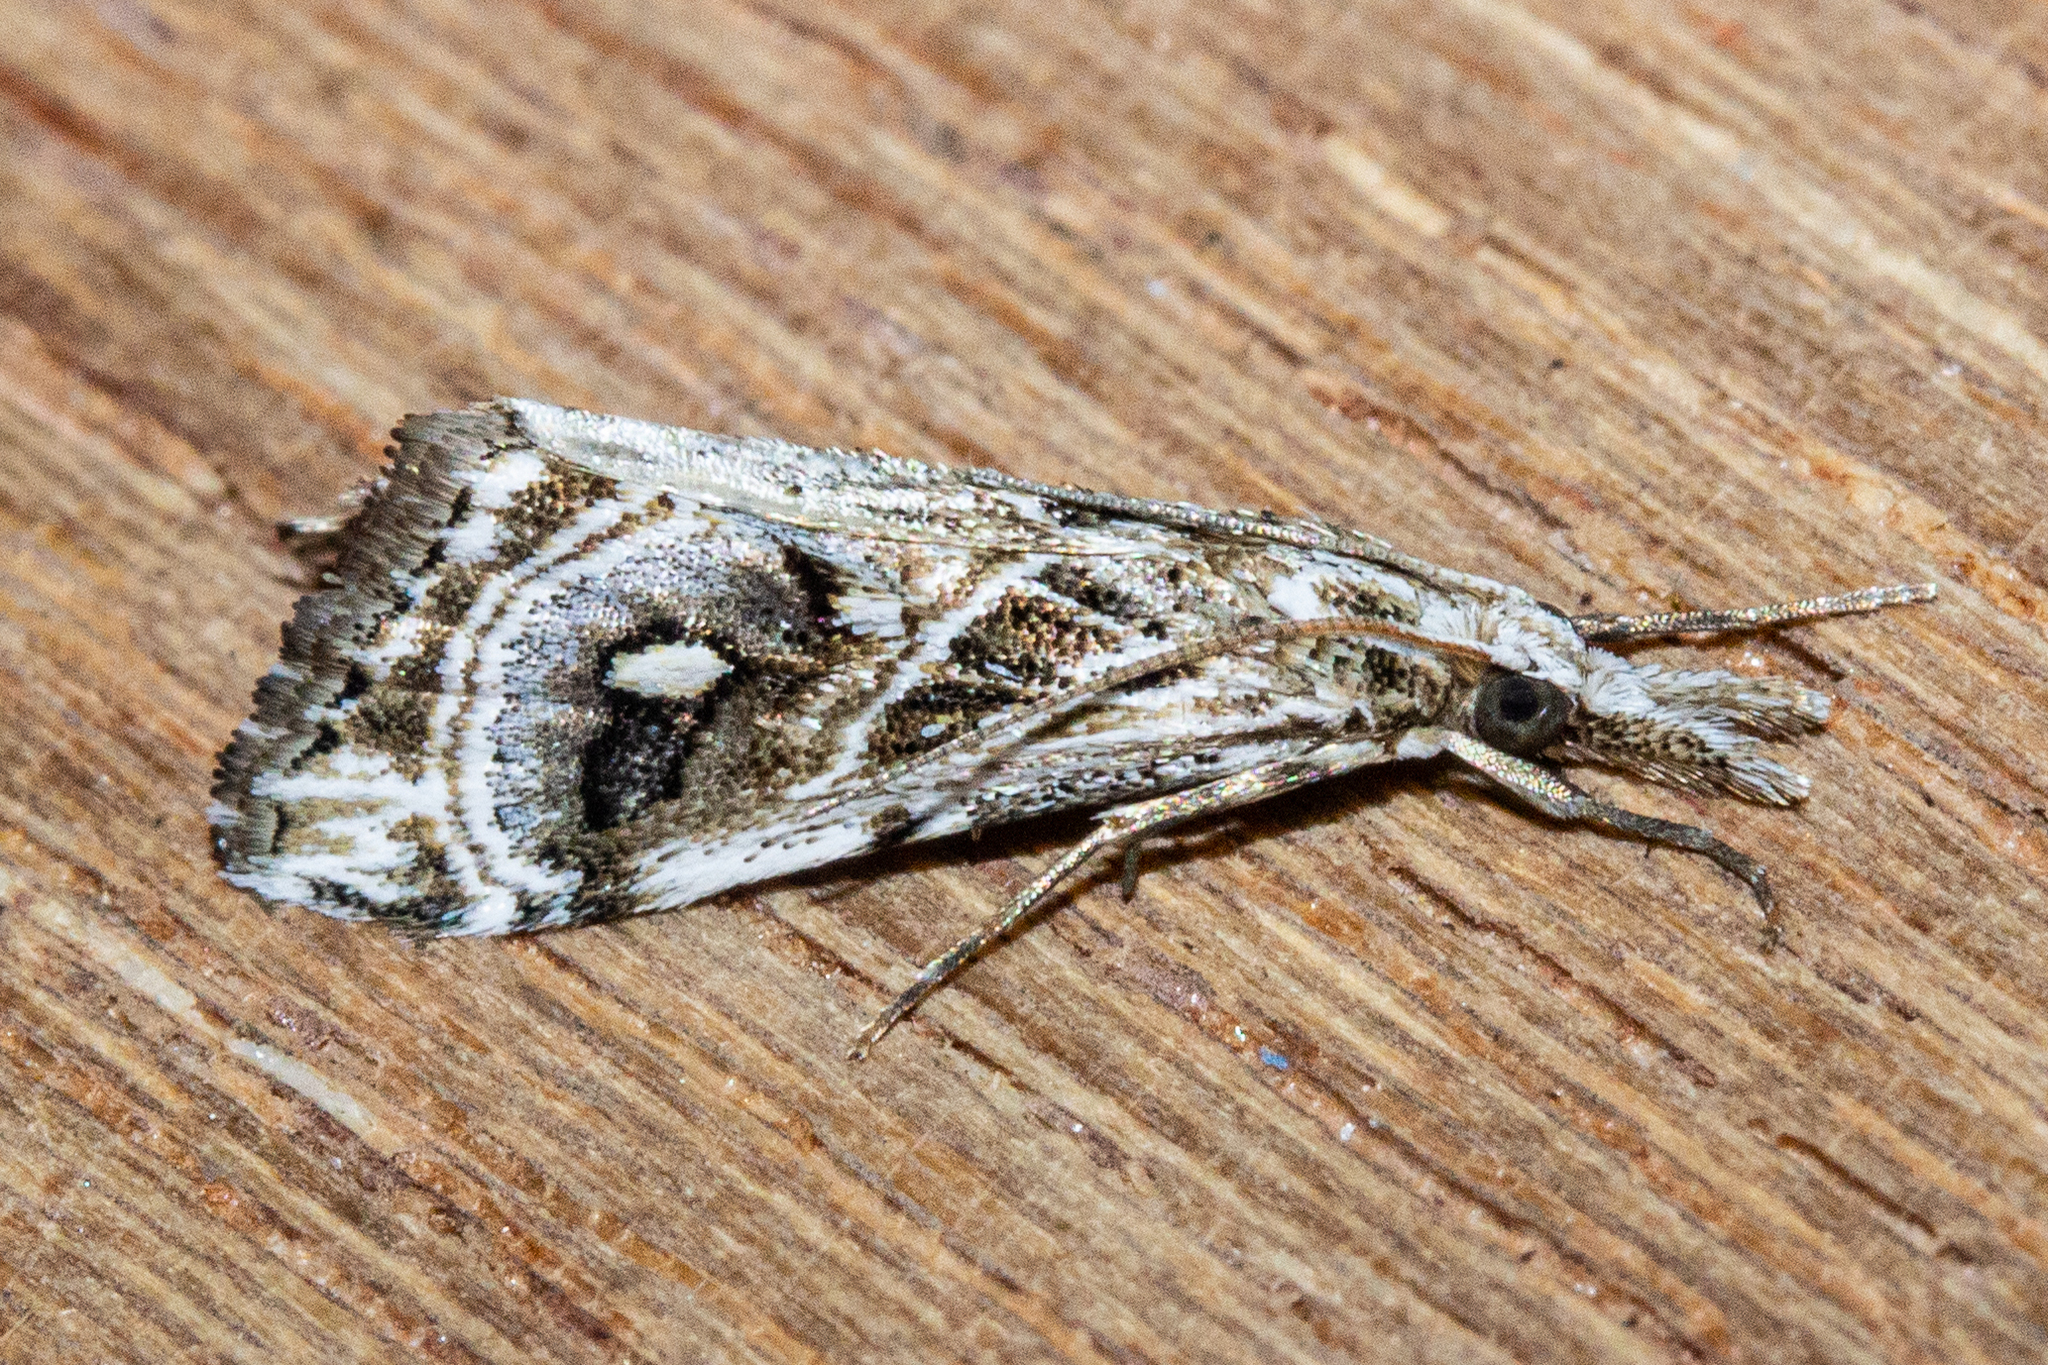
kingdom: Animalia
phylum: Arthropoda
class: Insecta
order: Lepidoptera
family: Crambidae
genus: Gadira
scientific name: Gadira acerella
